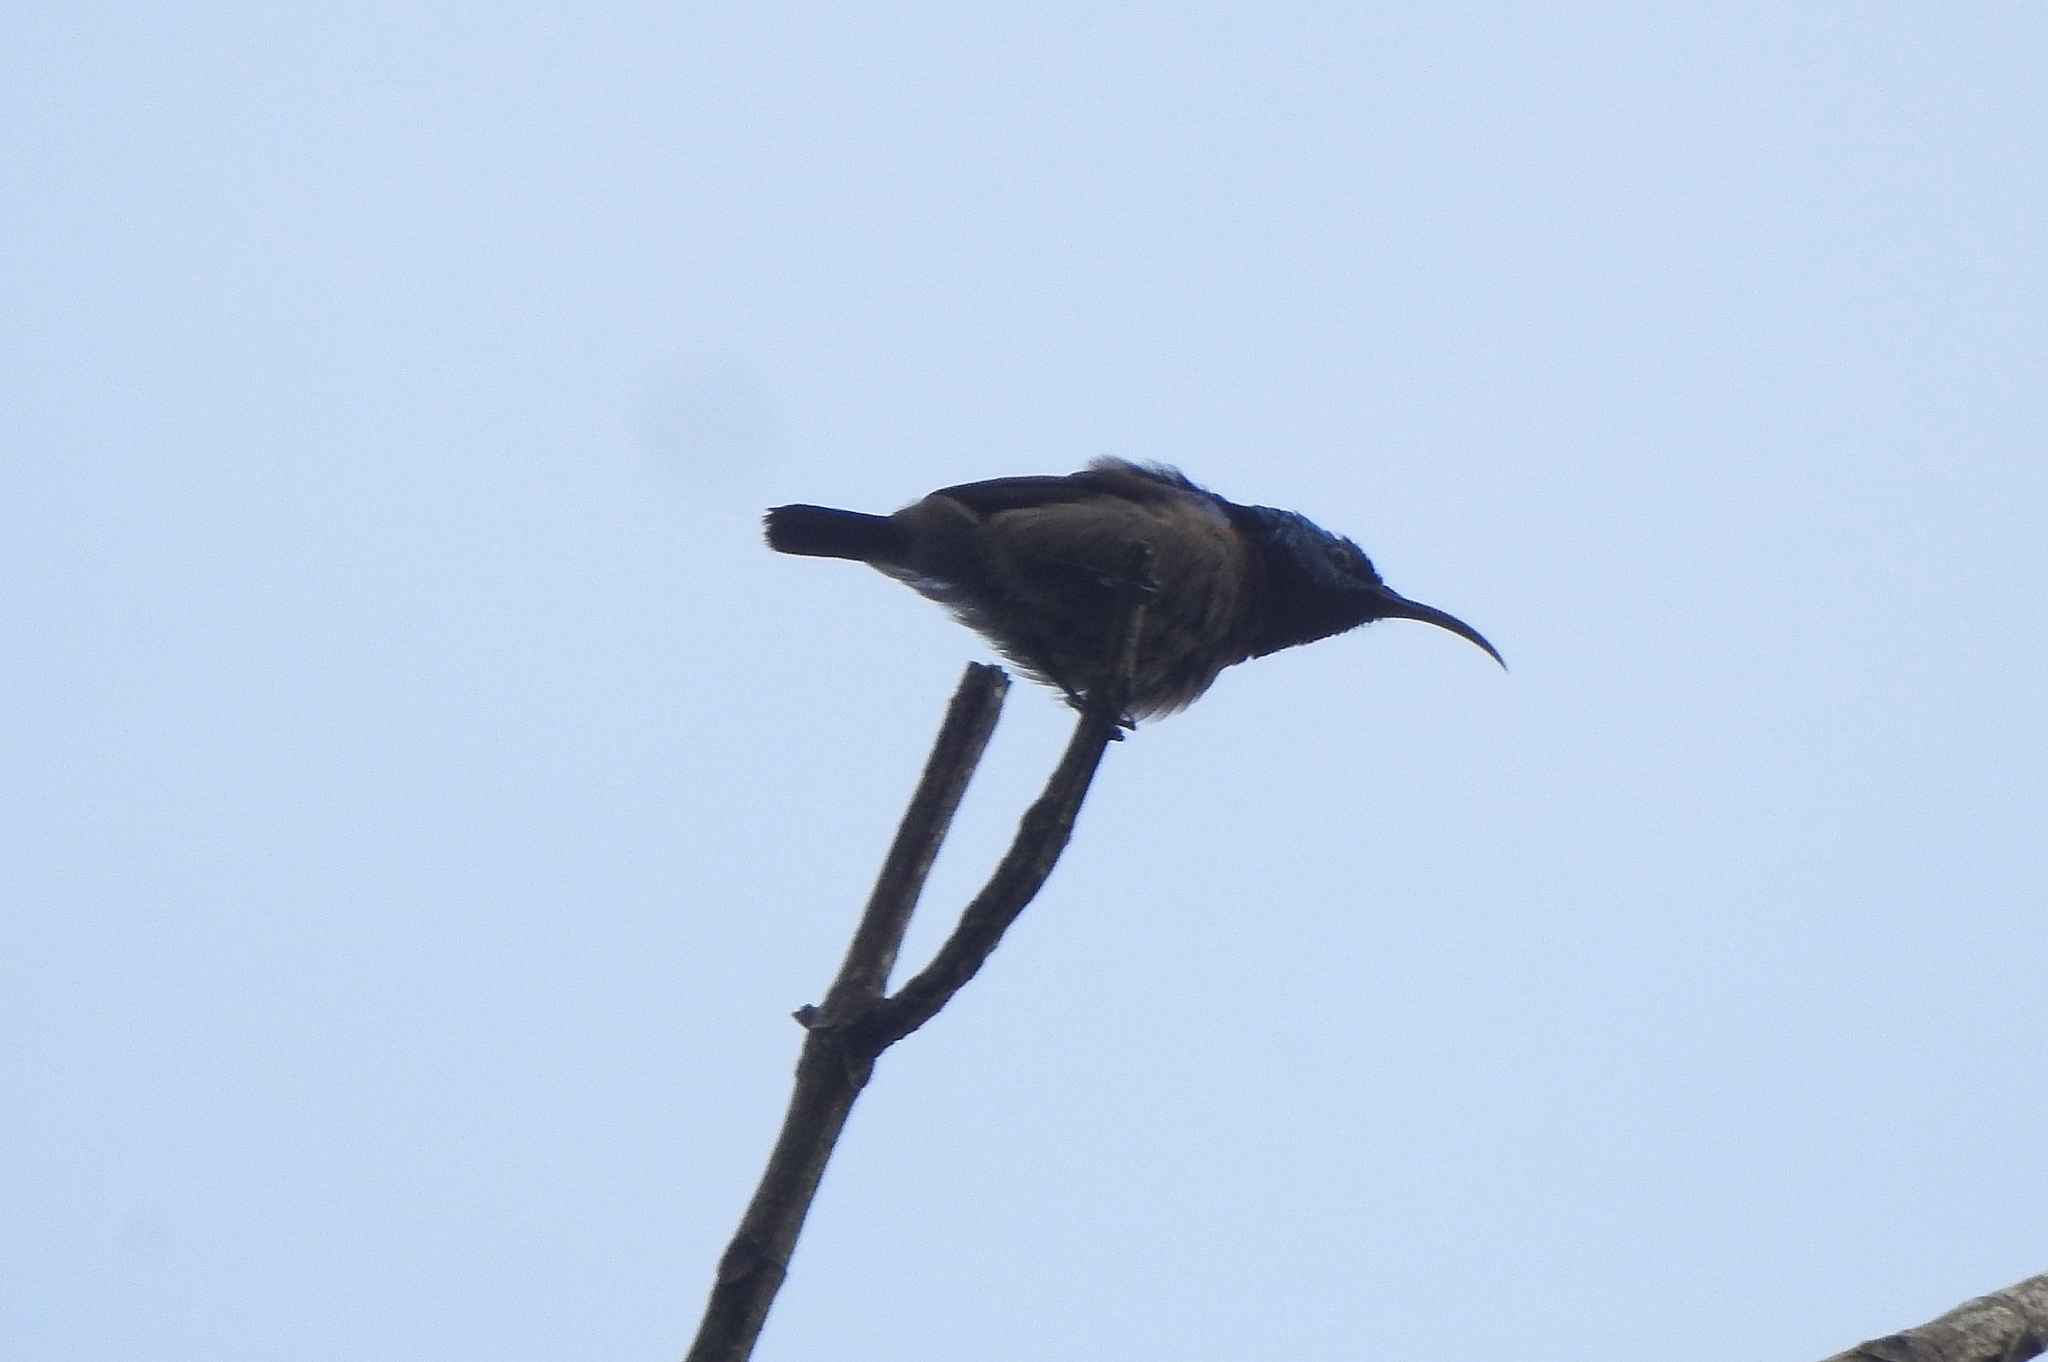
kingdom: Animalia
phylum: Chordata
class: Aves
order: Passeriformes
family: Nectariniidae
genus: Cinnyris
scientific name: Cinnyris lotenius
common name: Loten's sunbird
